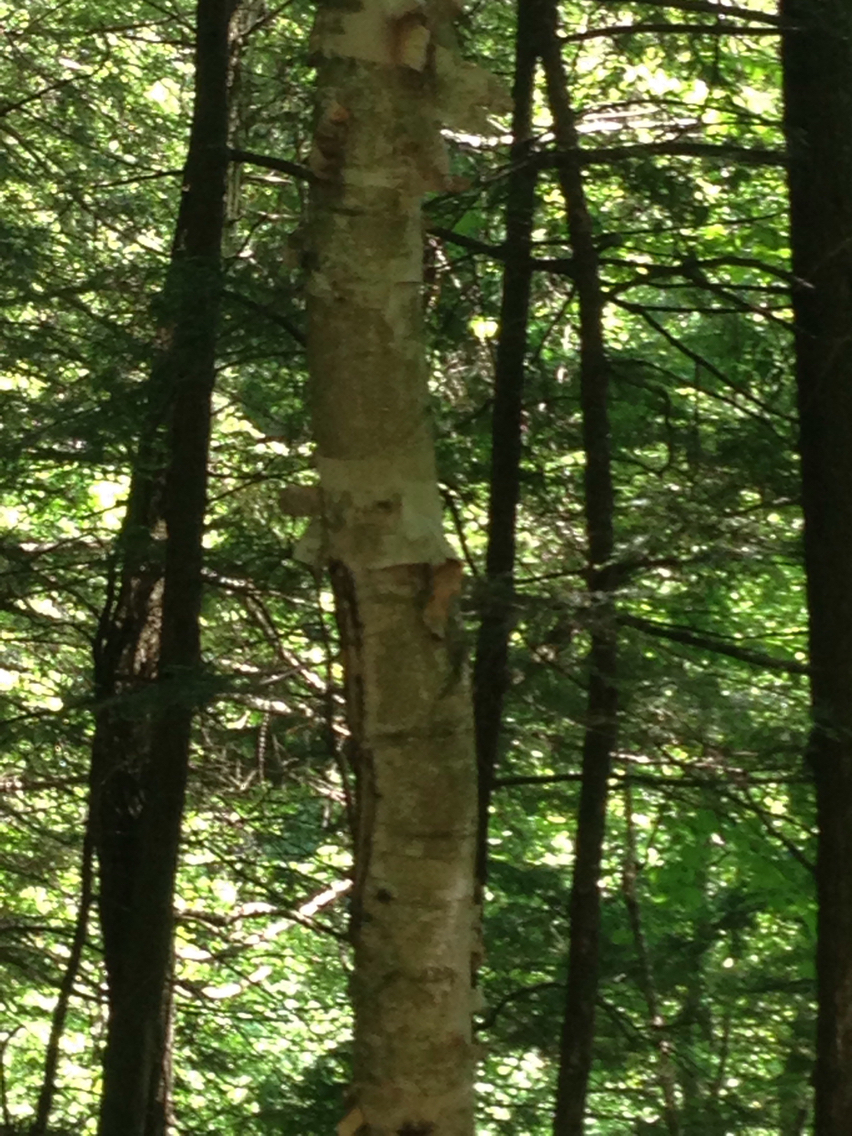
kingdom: Plantae
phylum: Tracheophyta
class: Magnoliopsida
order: Fagales
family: Betulaceae
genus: Betula
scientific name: Betula papyrifera
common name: Paper birch
